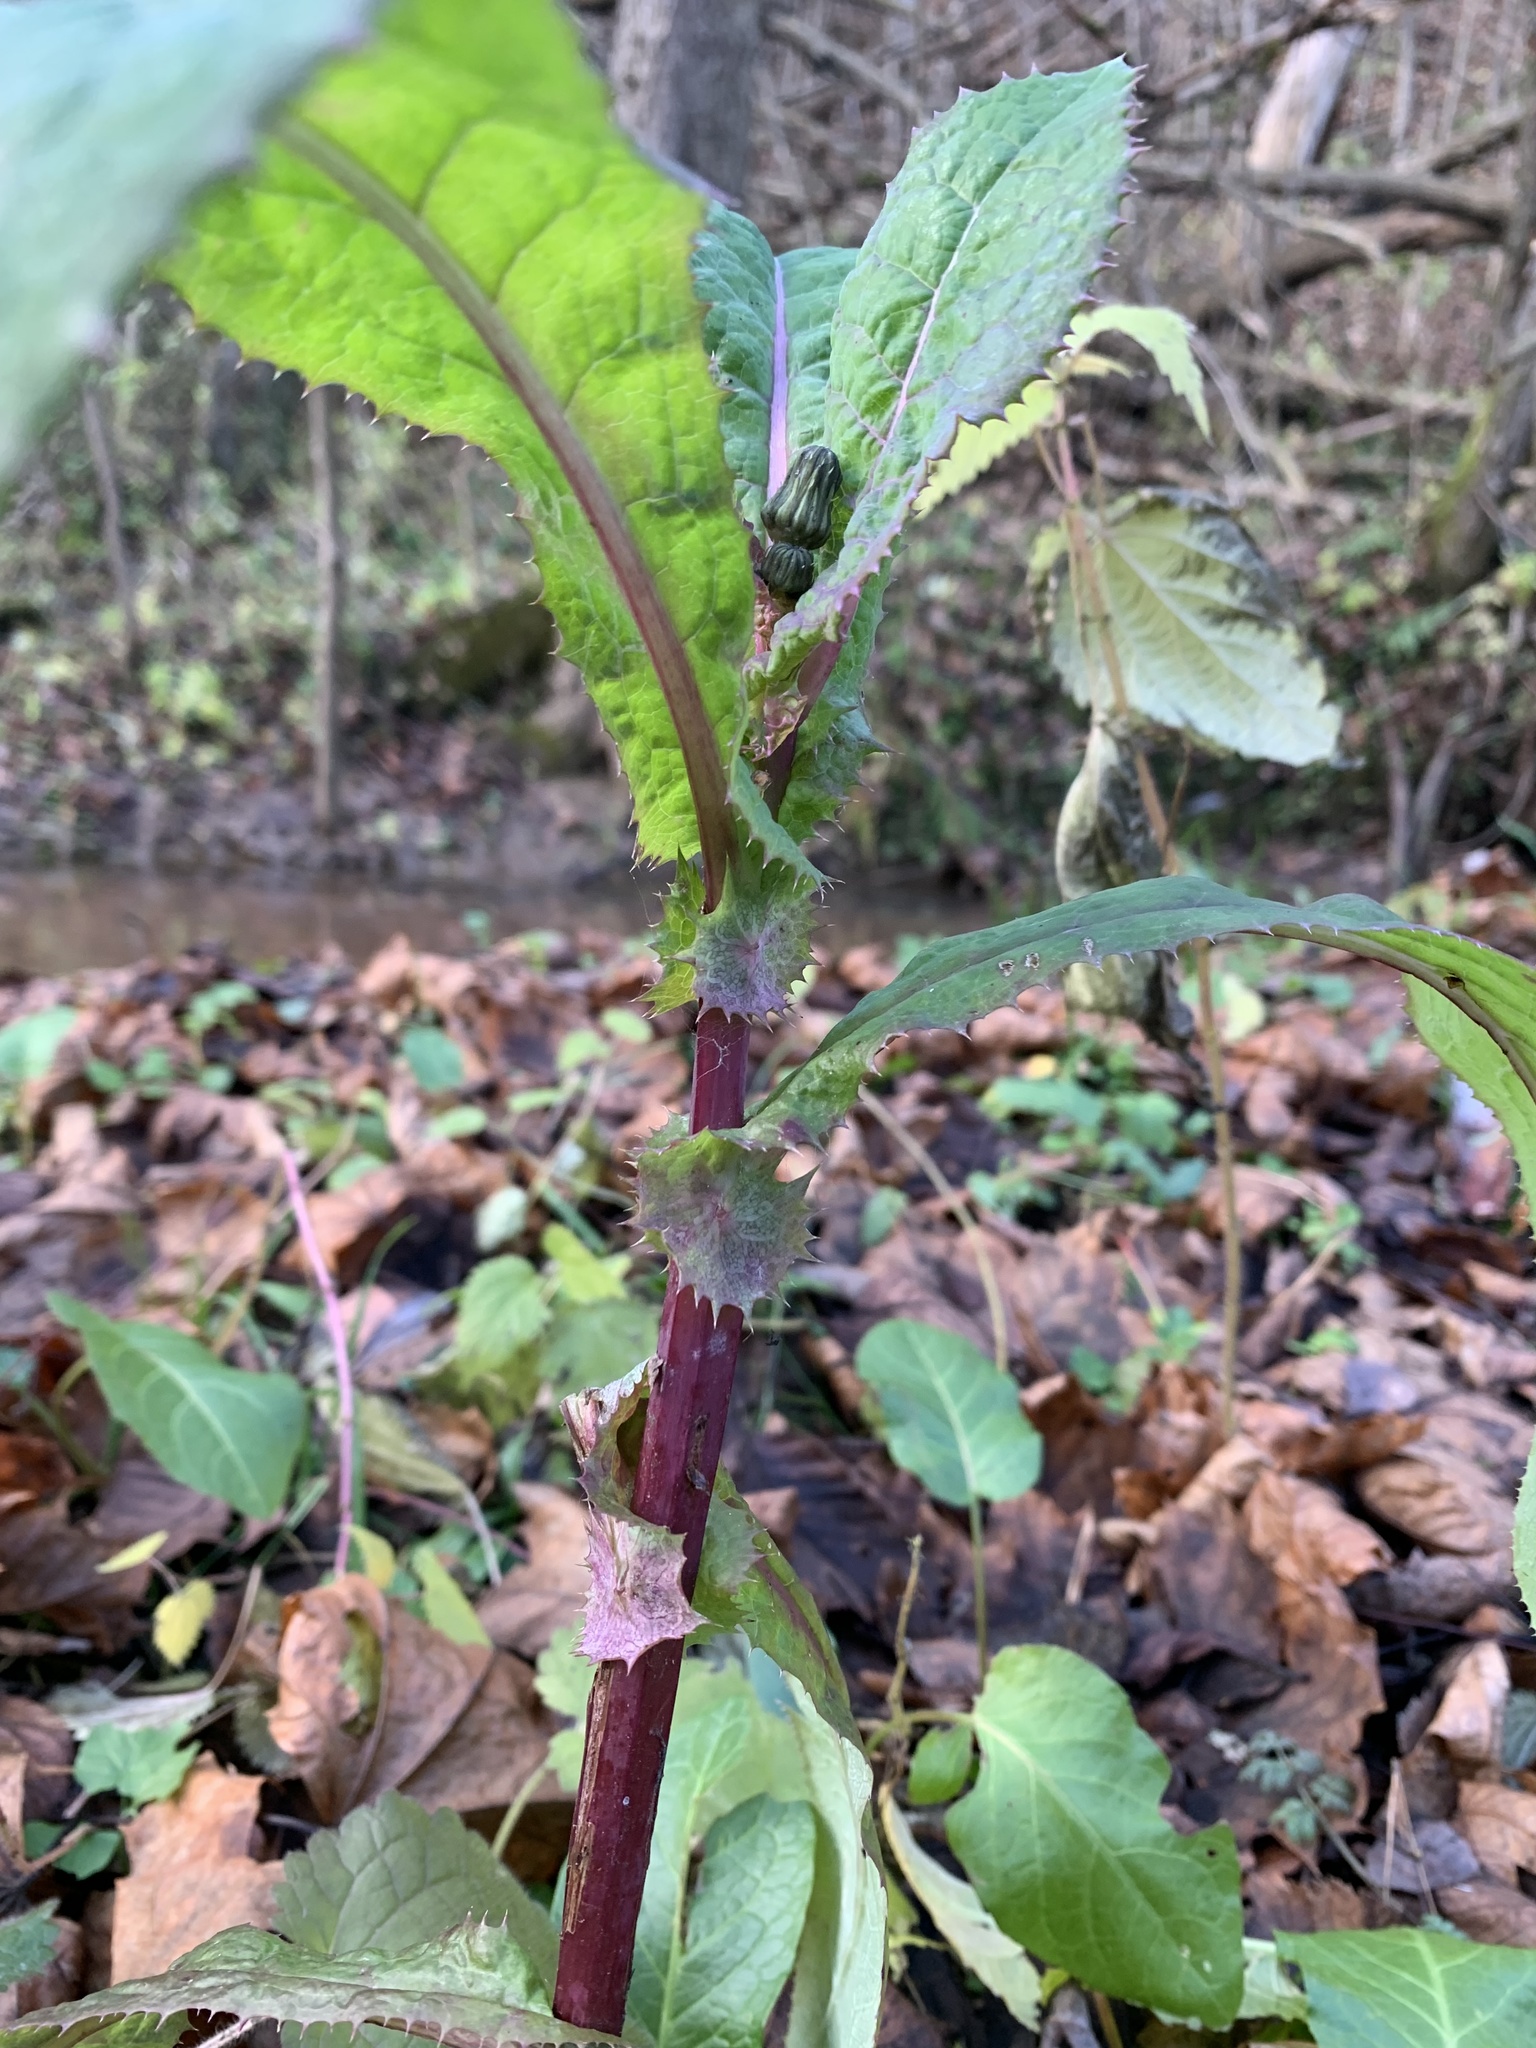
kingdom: Plantae
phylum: Tracheophyta
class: Magnoliopsida
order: Asterales
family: Asteraceae
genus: Sonchus
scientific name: Sonchus oleraceus
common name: Common sowthistle
